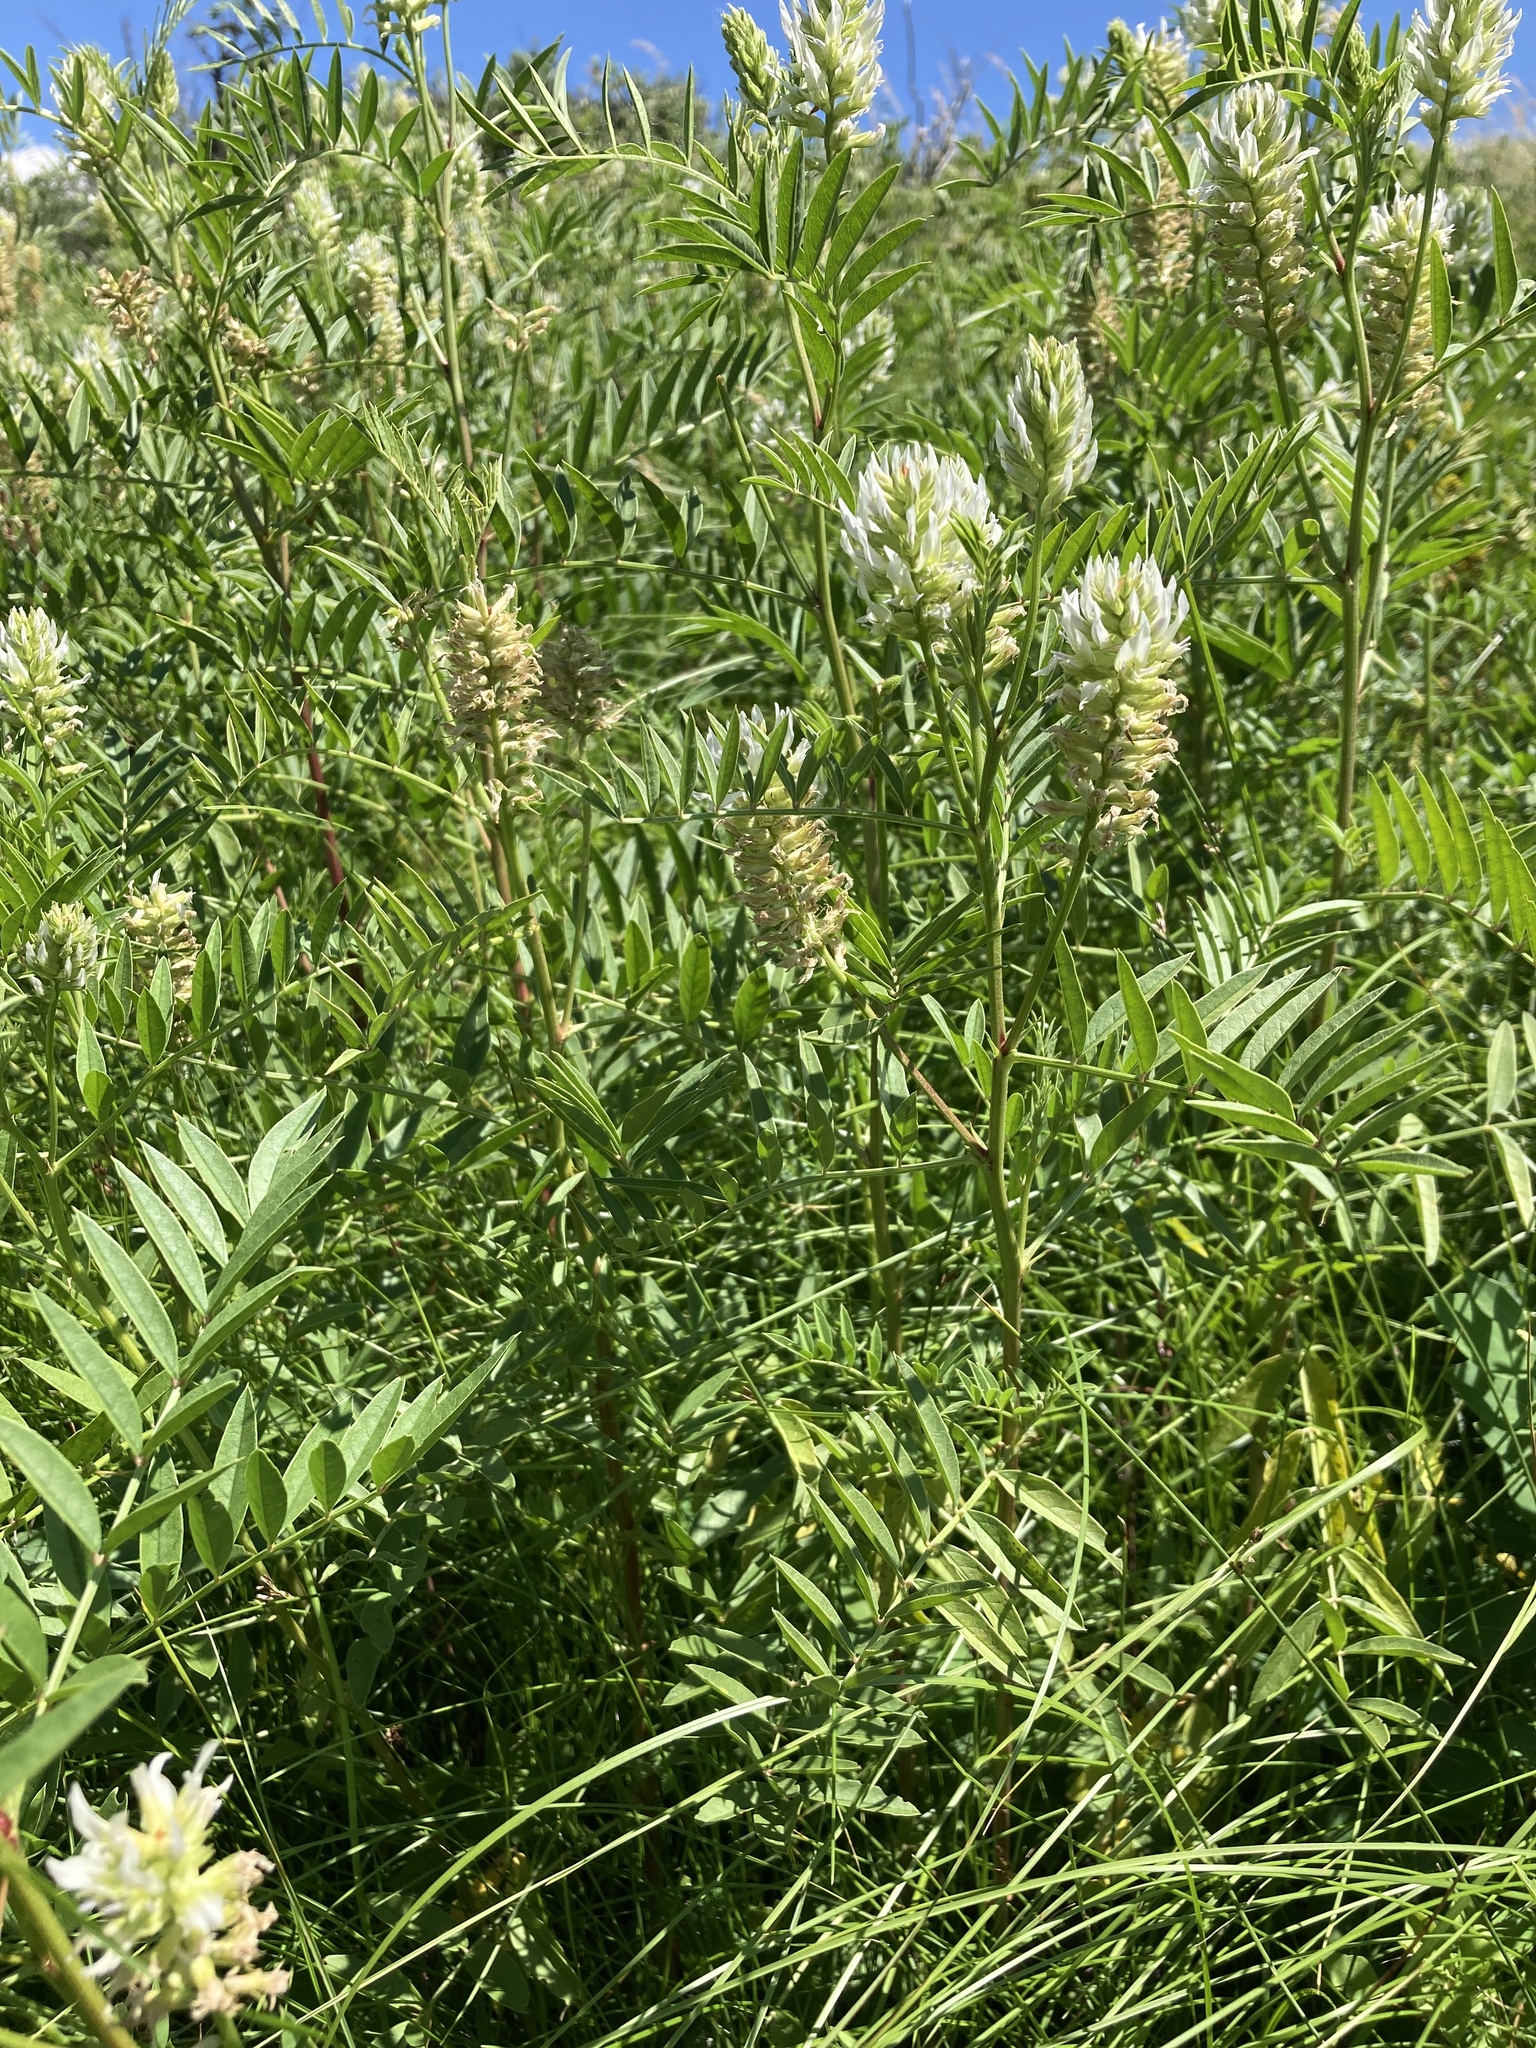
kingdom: Plantae
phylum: Tracheophyta
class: Magnoliopsida
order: Fabales
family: Fabaceae
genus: Glycyrrhiza
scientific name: Glycyrrhiza lepidota
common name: American liquorice
